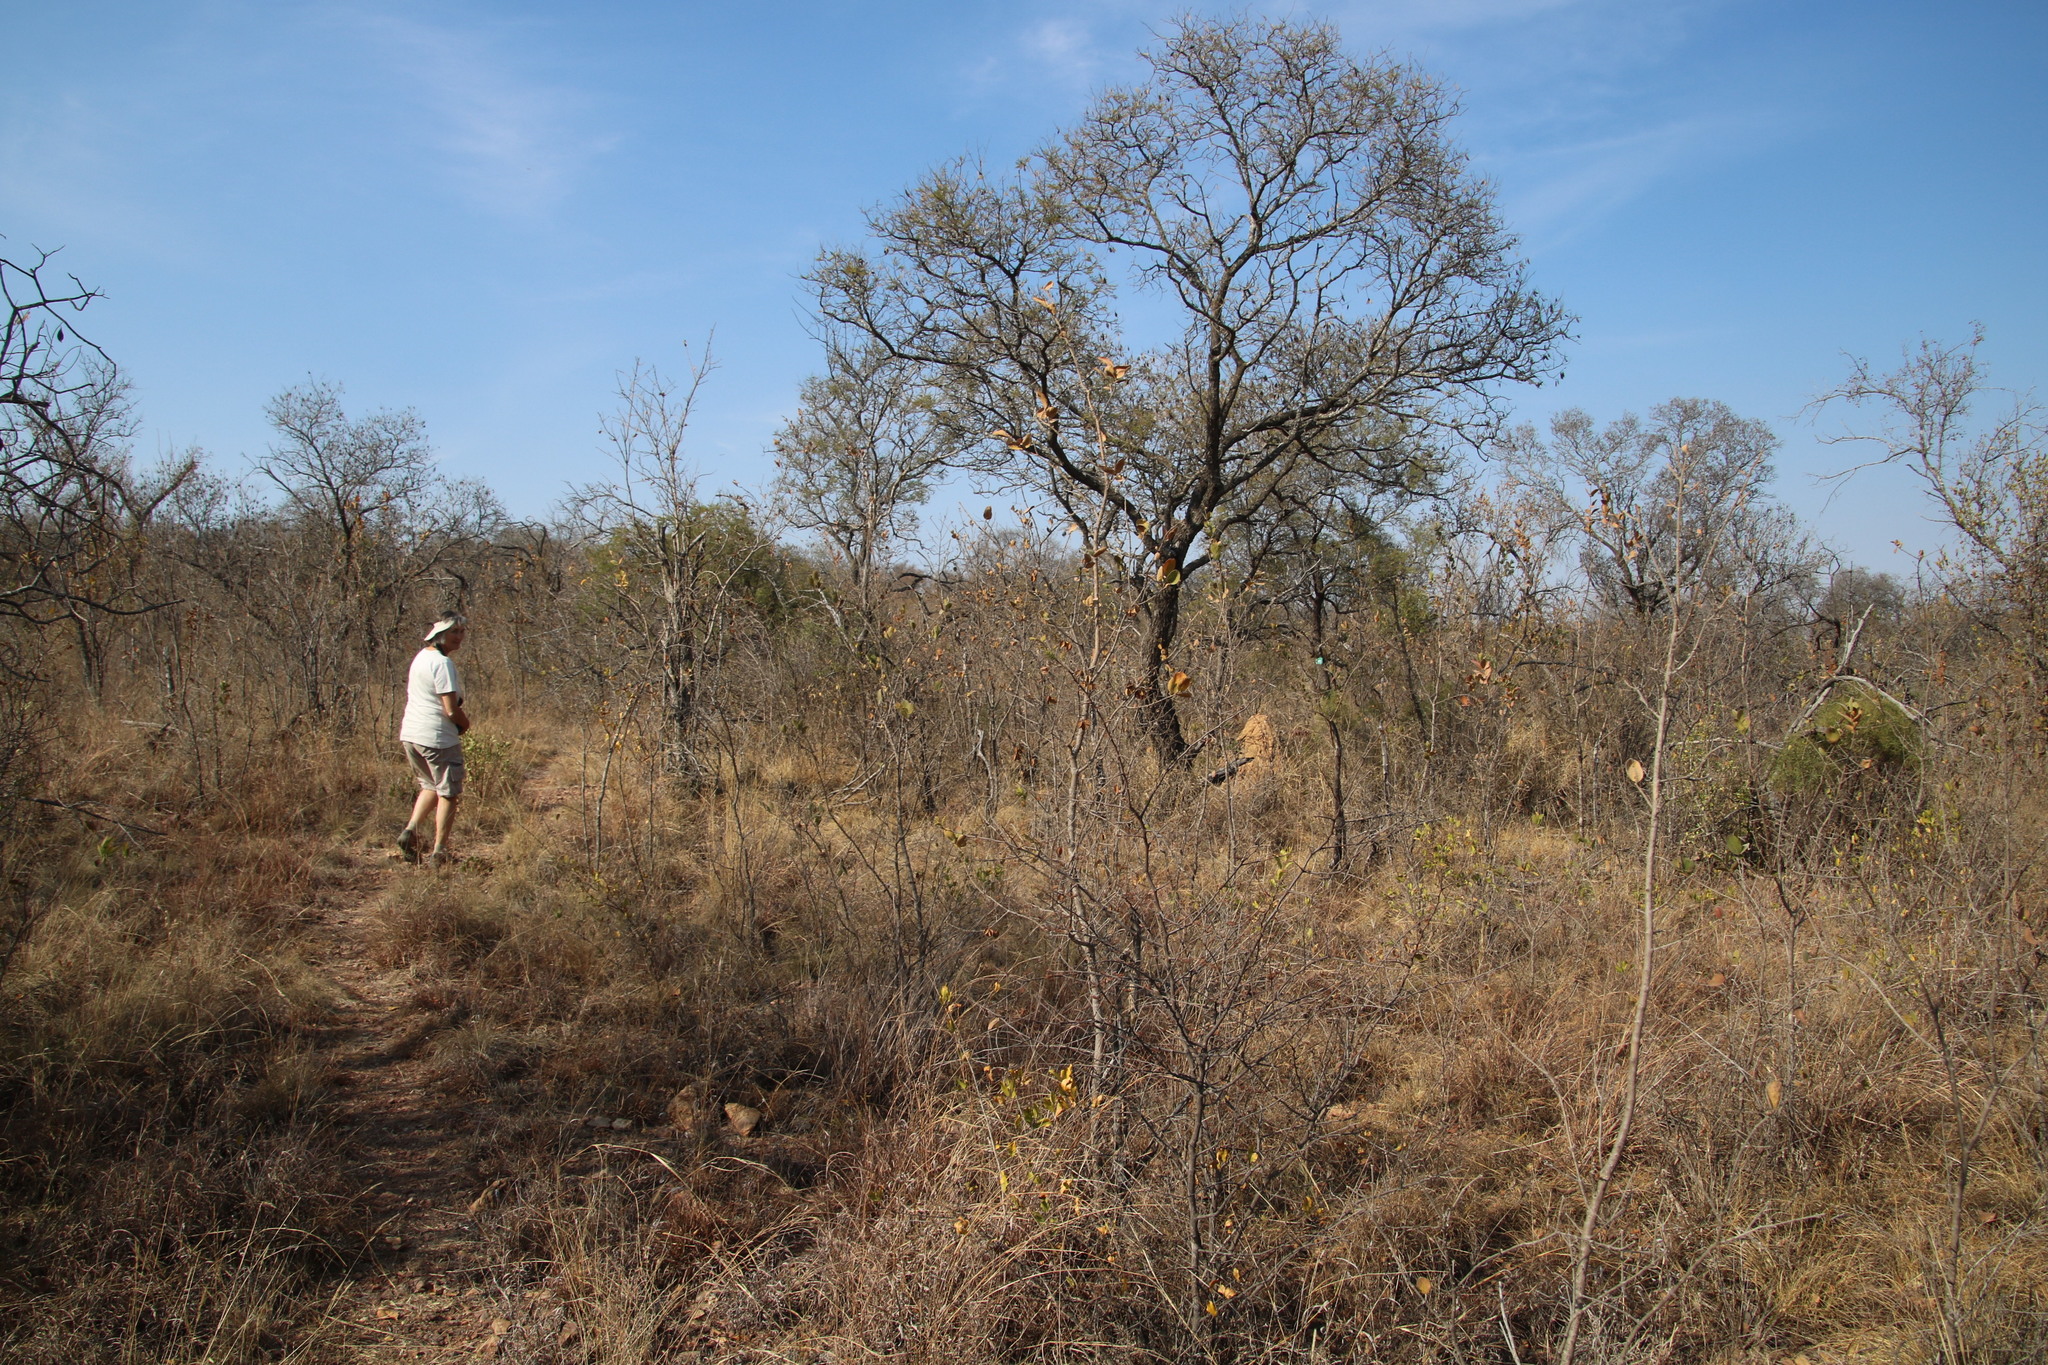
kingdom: Plantae
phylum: Tracheophyta
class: Magnoliopsida
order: Fabales
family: Fabaceae
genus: Peltophorum
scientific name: Peltophorum africanum
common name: African black wattle
